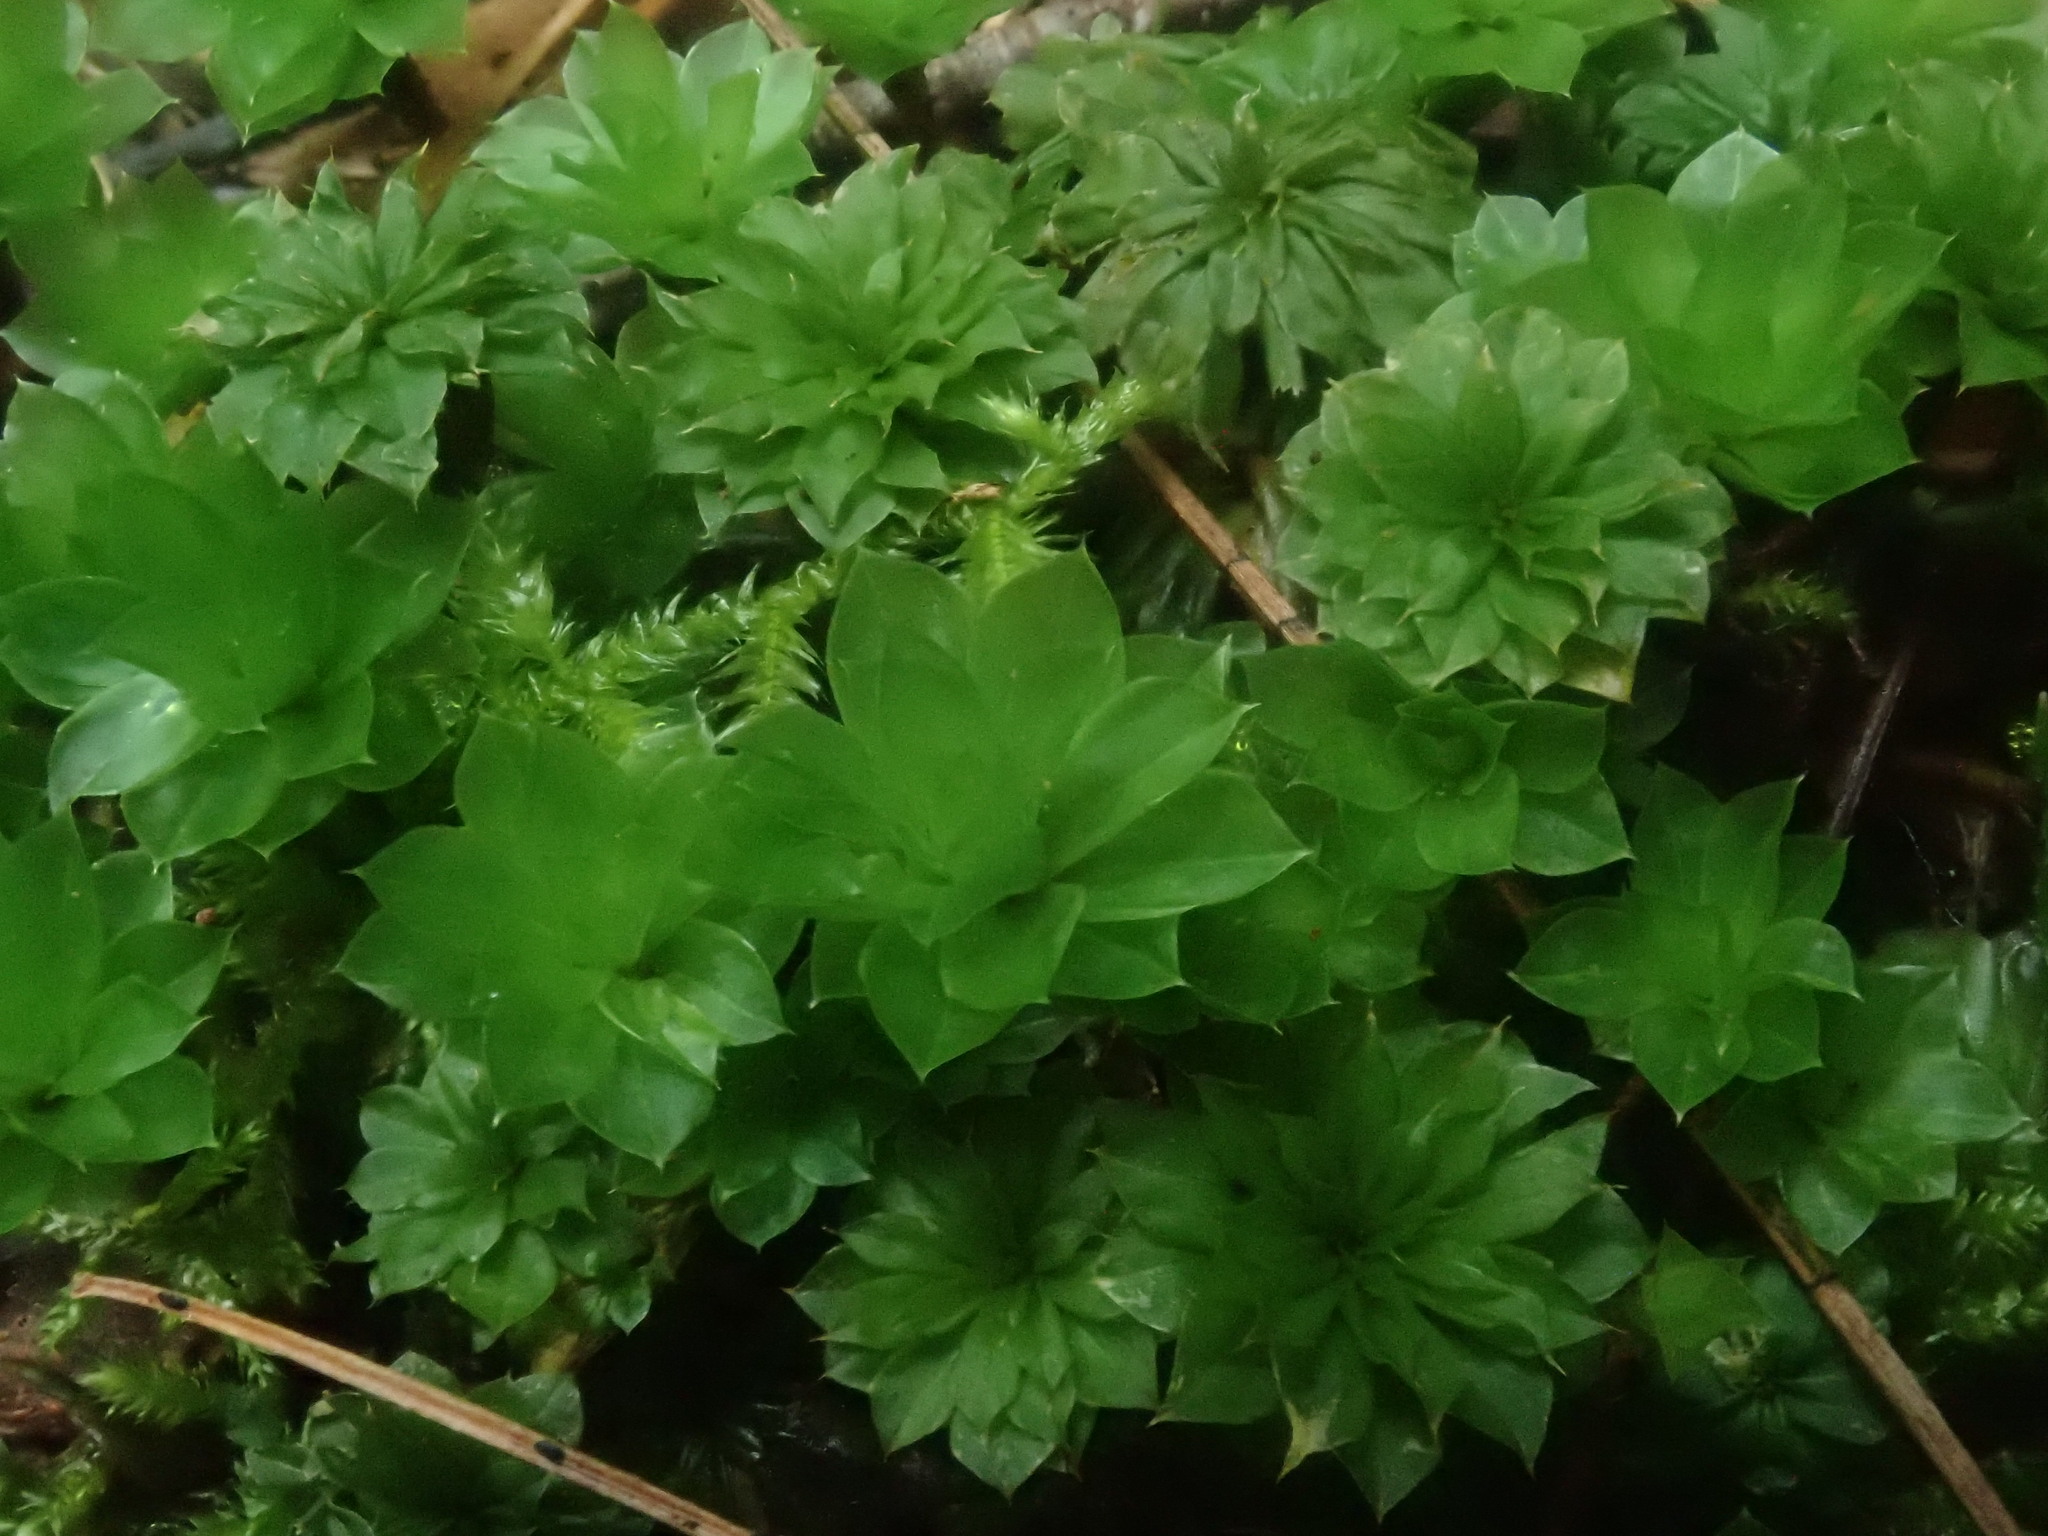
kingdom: Plantae
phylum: Bryophyta
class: Bryopsida
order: Bryales
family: Bryaceae
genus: Rhodobryum
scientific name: Rhodobryum ontariense
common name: Ontario rhodobryum moss
